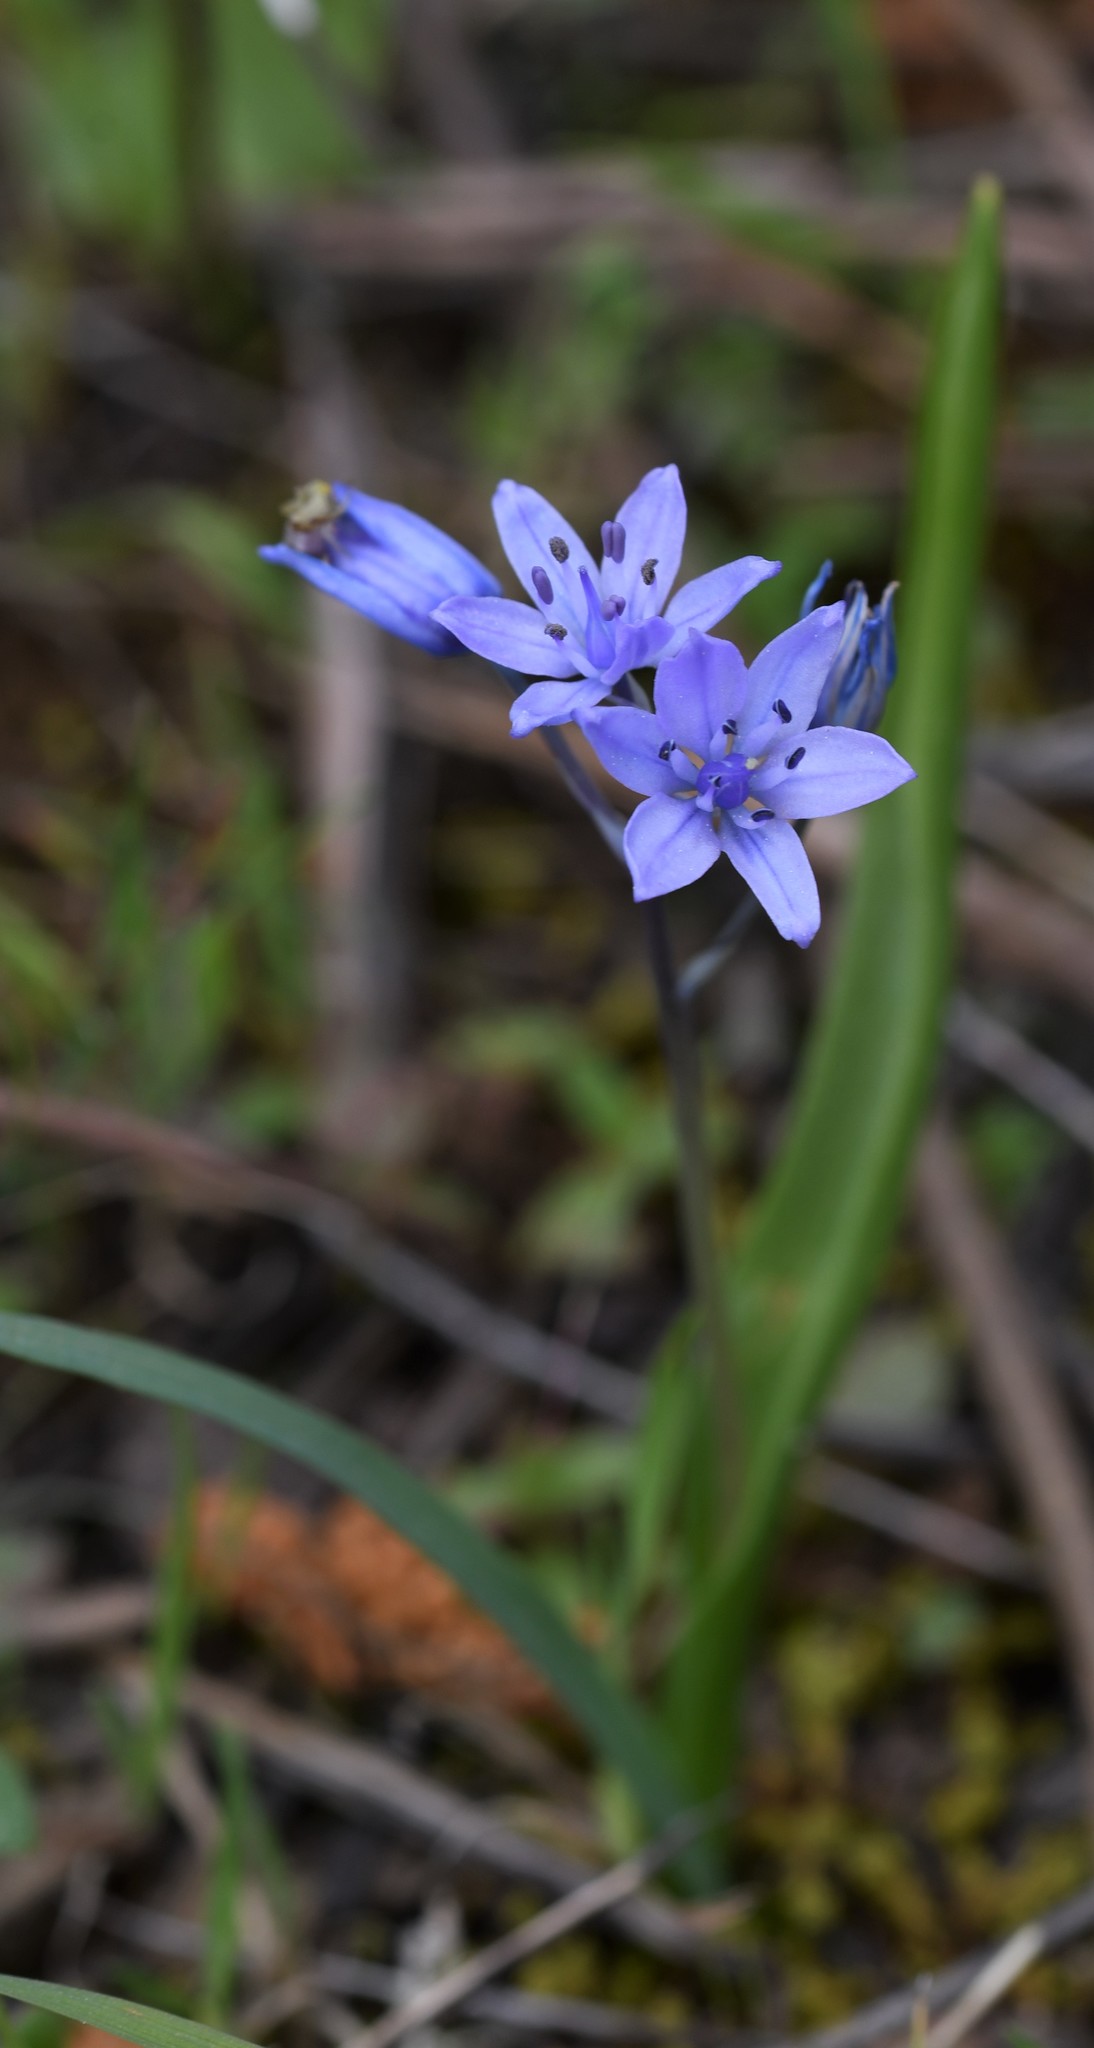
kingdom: Plantae
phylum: Tracheophyta
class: Liliopsida
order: Asparagales
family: Asparagaceae
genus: Scilla
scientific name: Scilla monophyllos
